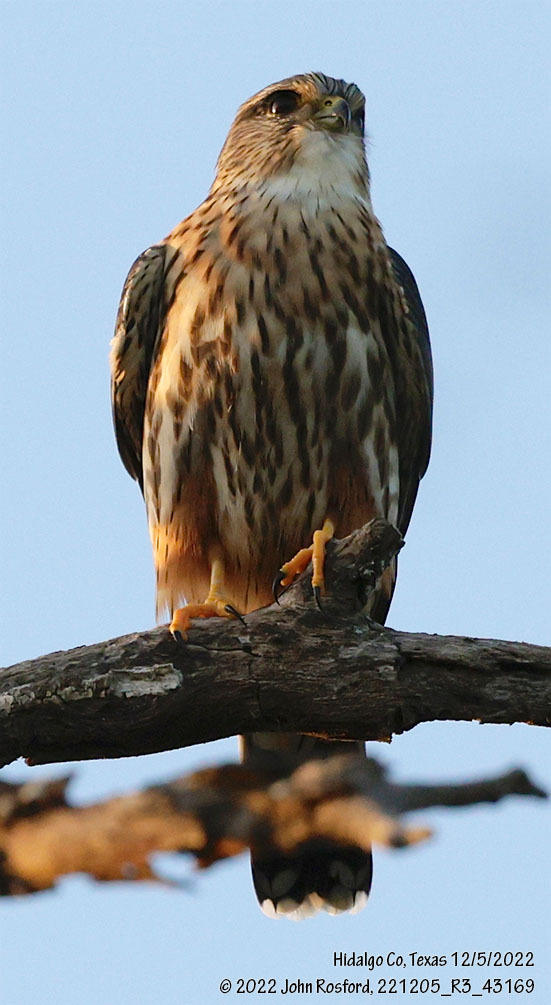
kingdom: Animalia
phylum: Chordata
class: Aves
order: Falconiformes
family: Falconidae
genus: Falco
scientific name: Falco columbarius
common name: Merlin
